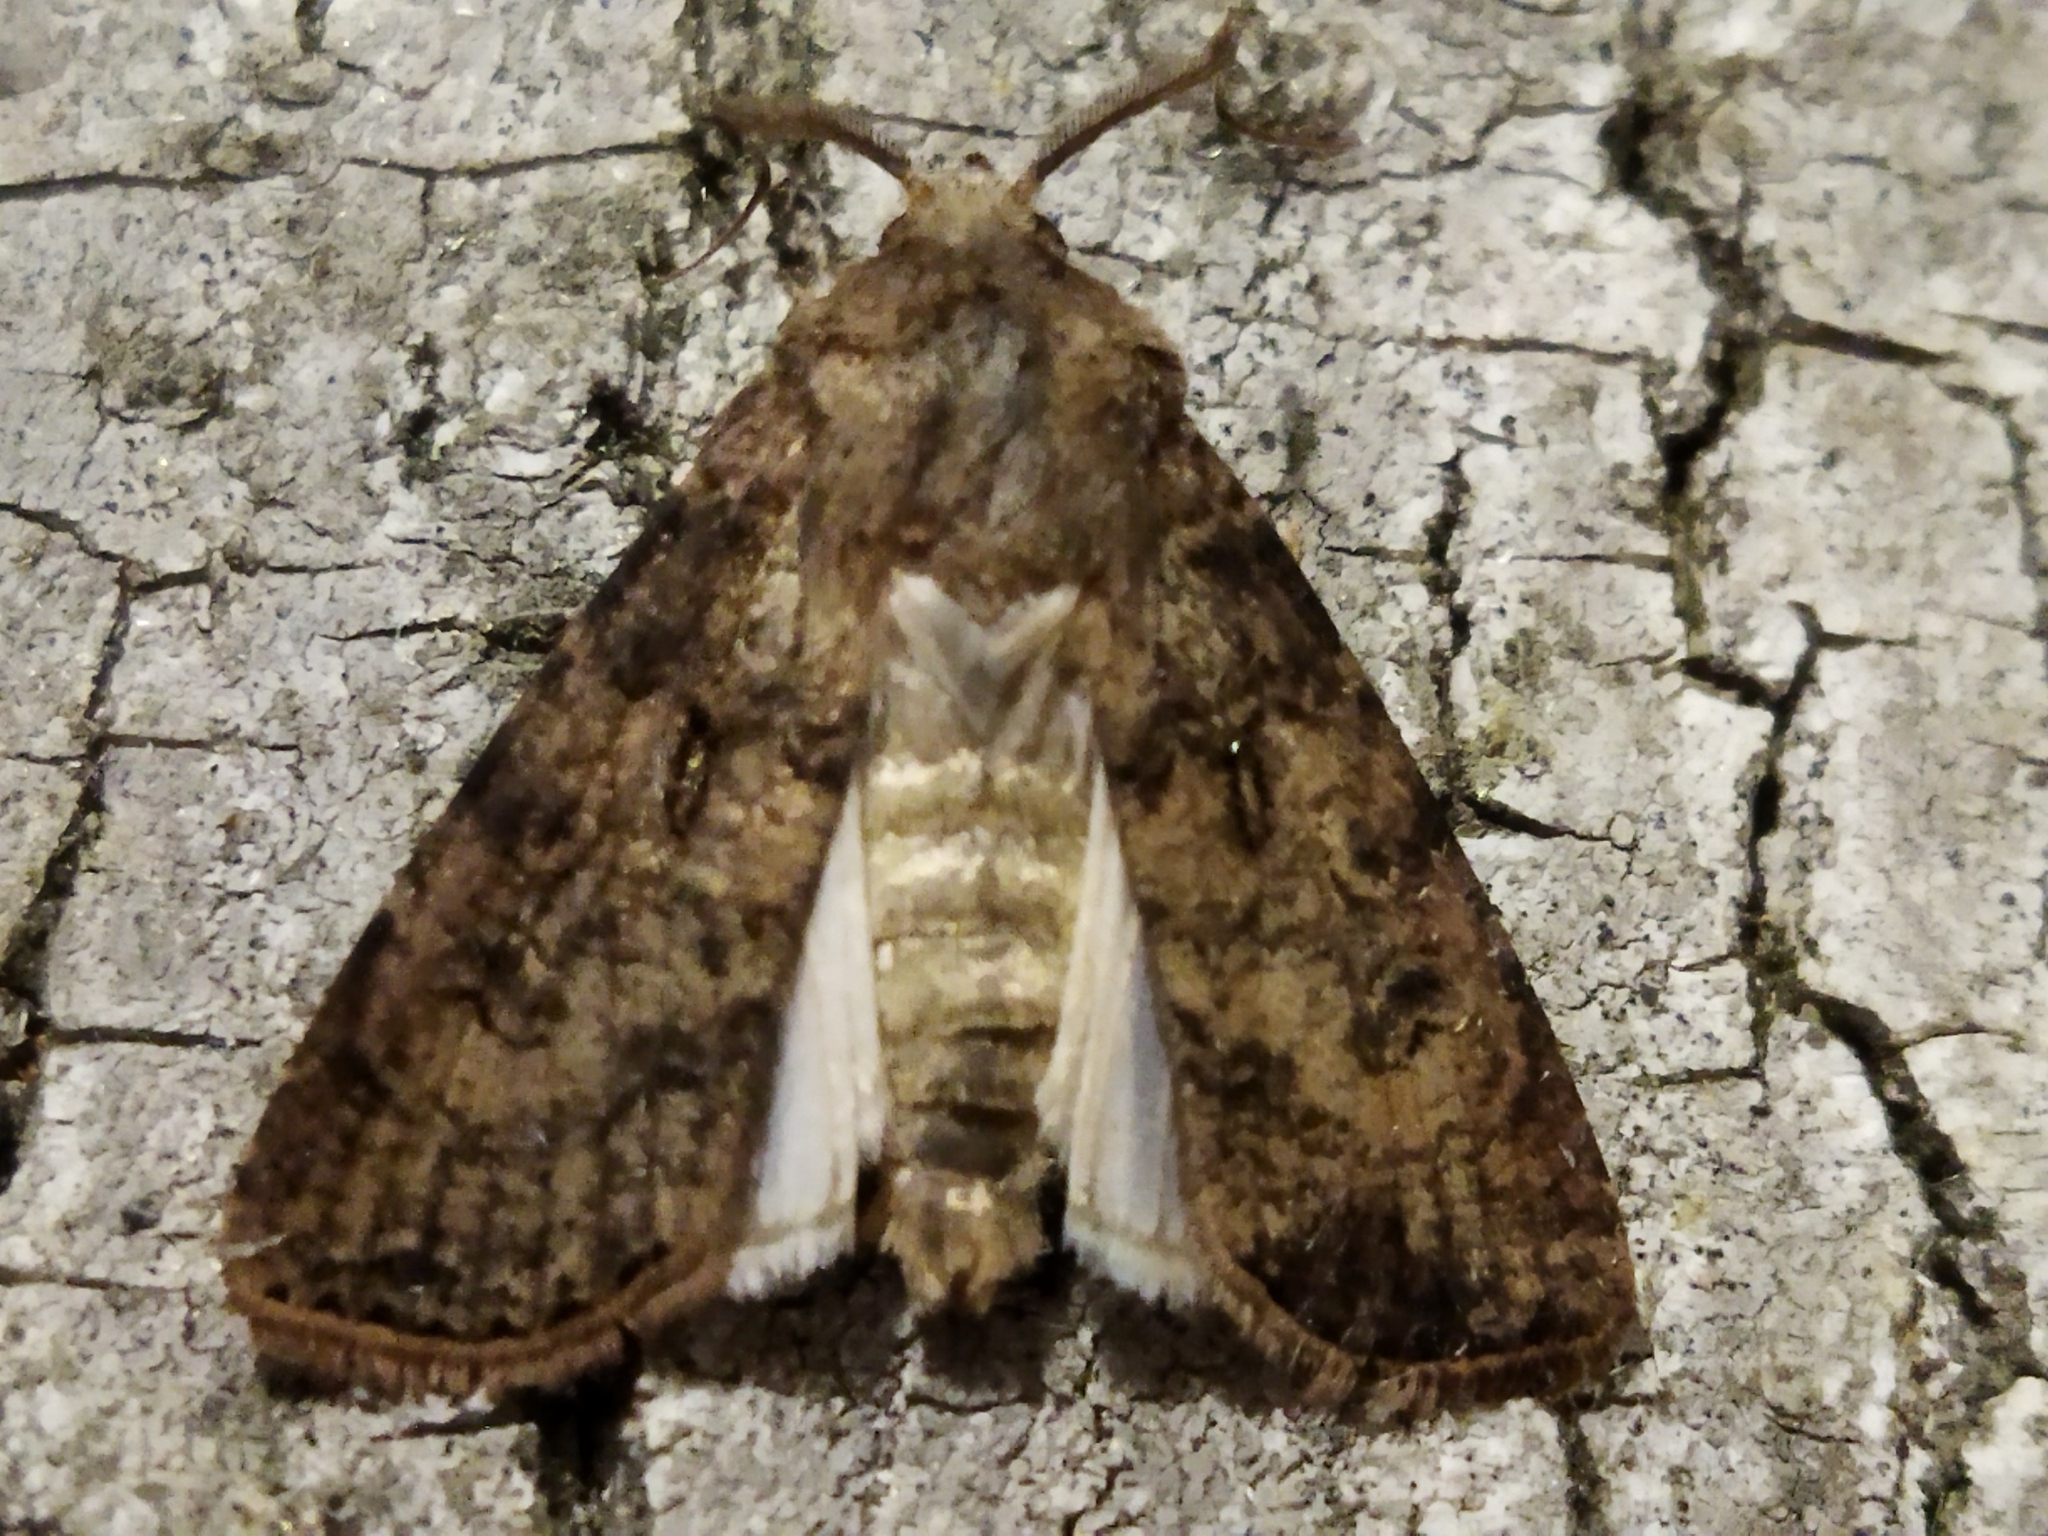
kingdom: Animalia
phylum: Arthropoda
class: Insecta
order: Lepidoptera
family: Noctuidae
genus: Agrotis
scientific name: Agrotis segetum
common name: Turnip moth
